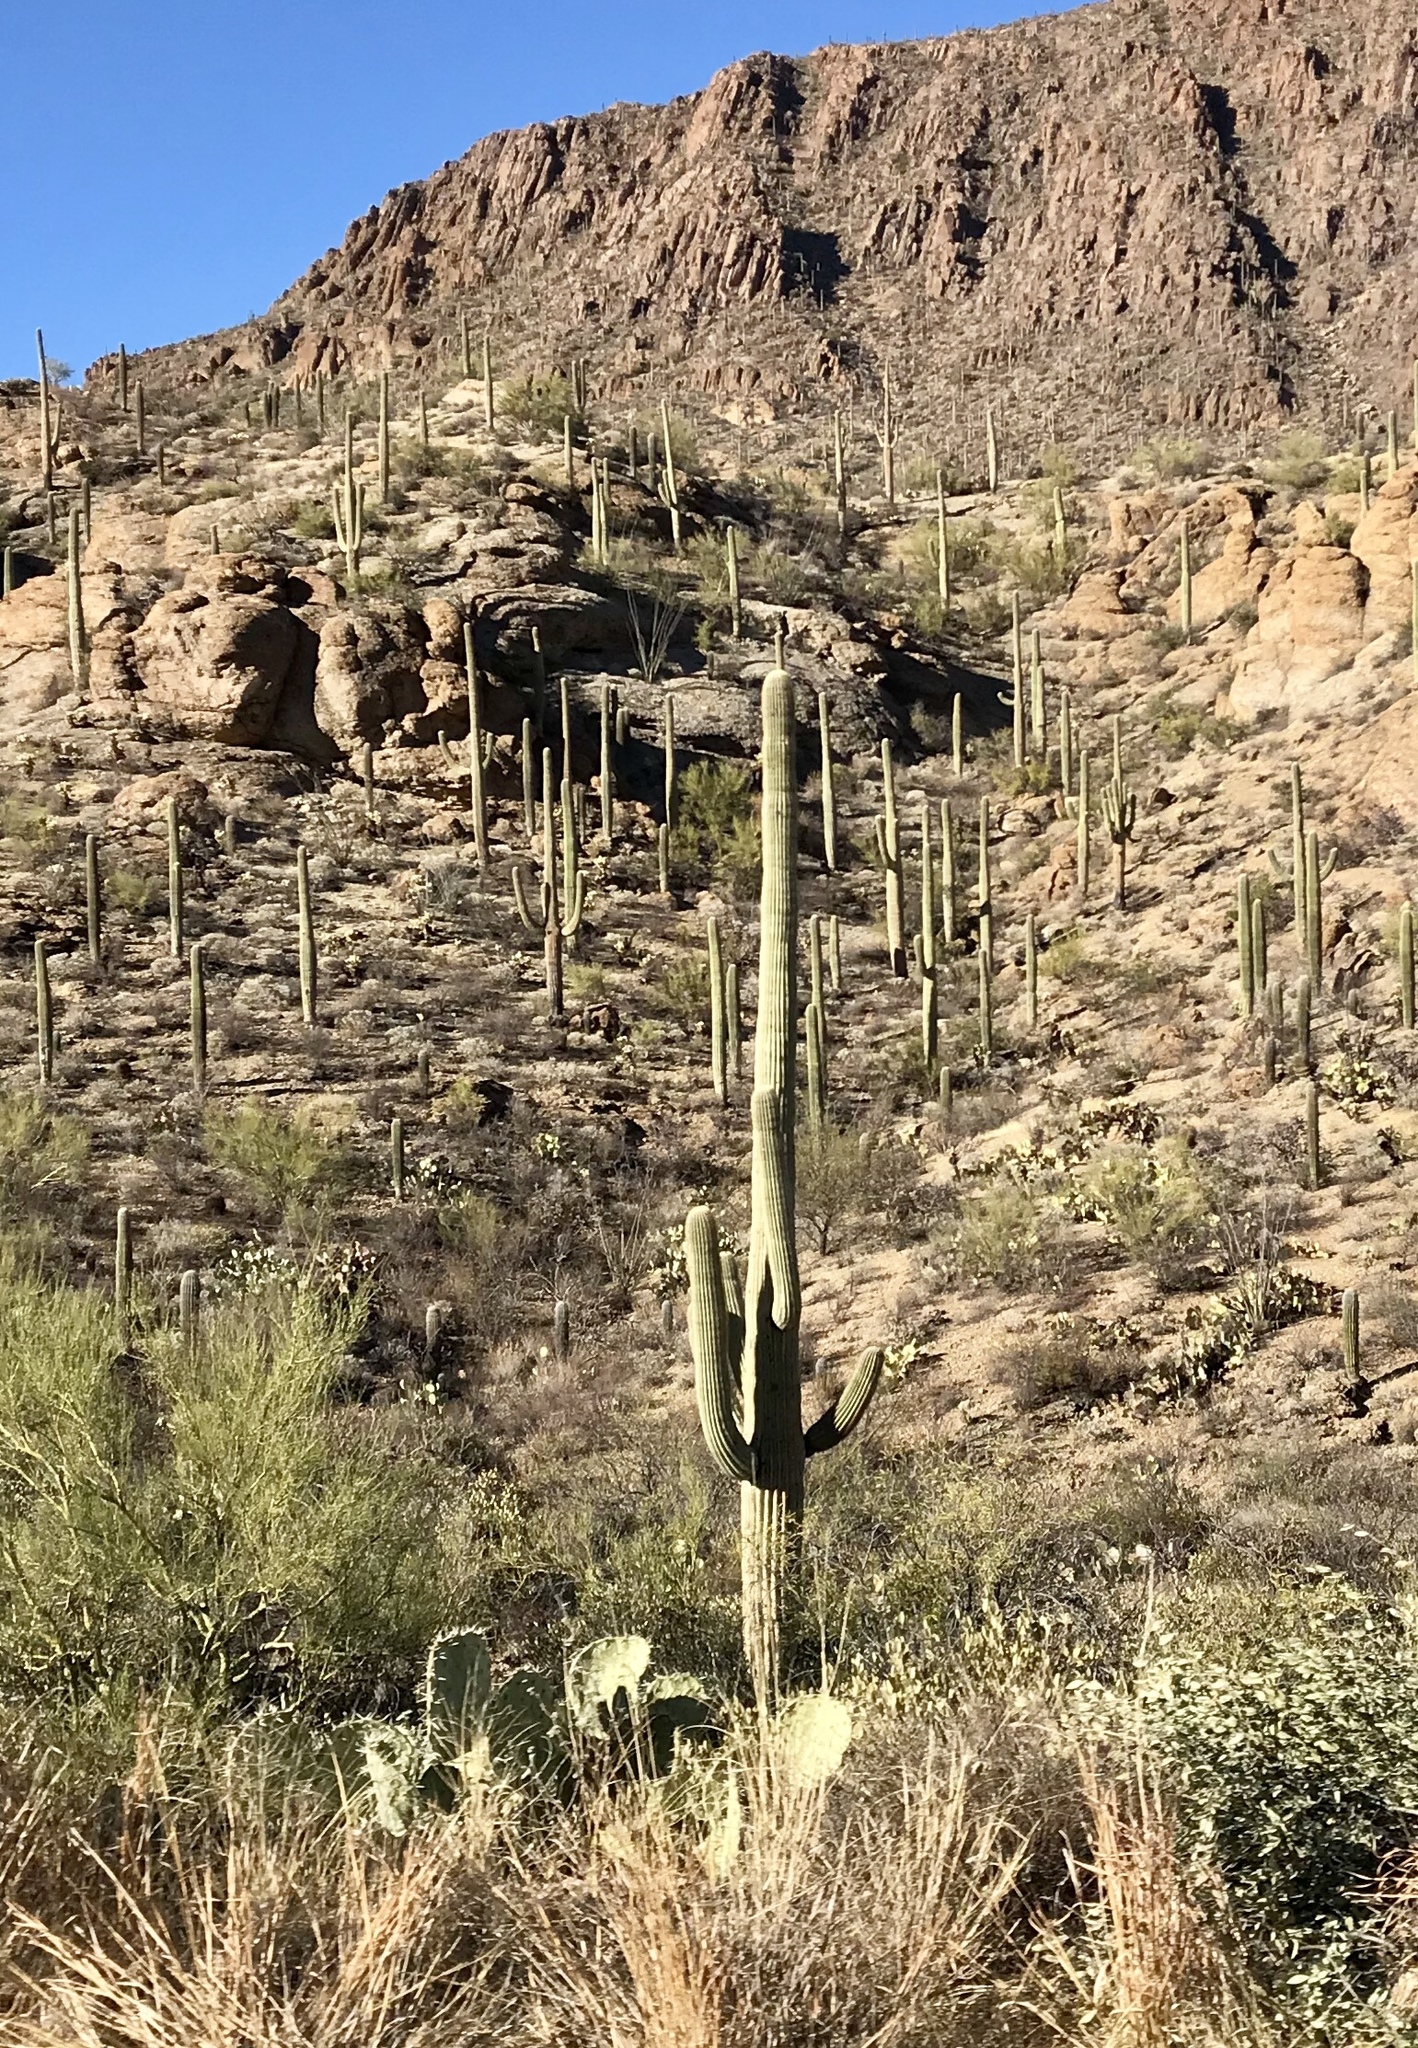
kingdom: Plantae
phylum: Tracheophyta
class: Magnoliopsida
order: Caryophyllales
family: Cactaceae
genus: Carnegiea
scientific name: Carnegiea gigantea
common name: Saguaro
